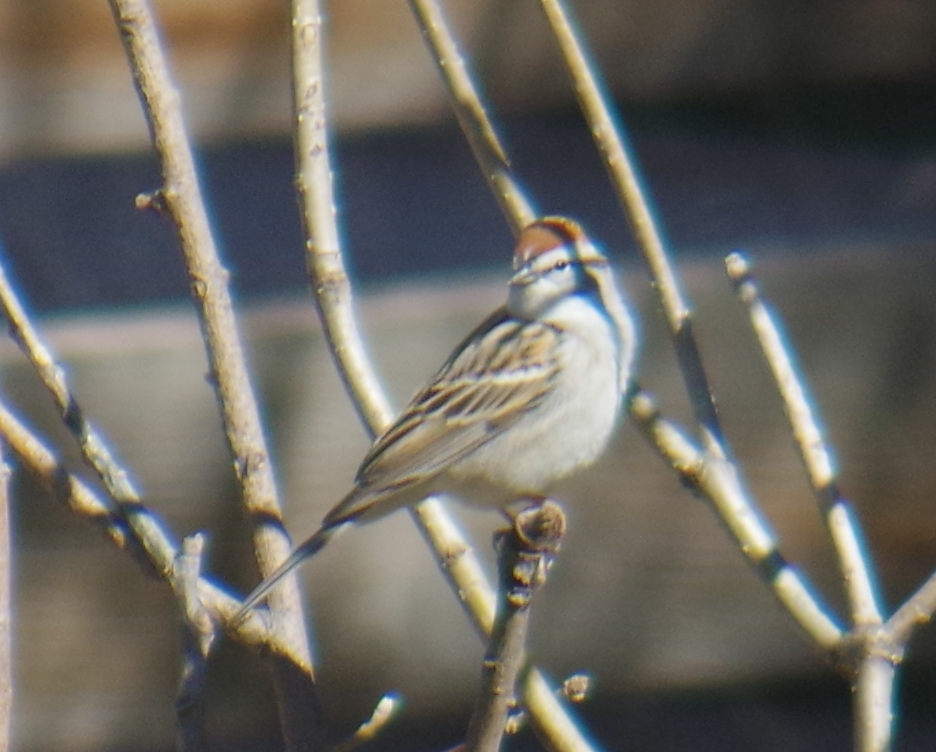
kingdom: Animalia
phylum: Chordata
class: Aves
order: Passeriformes
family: Passerellidae
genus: Spizella
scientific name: Spizella passerina
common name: Chipping sparrow
